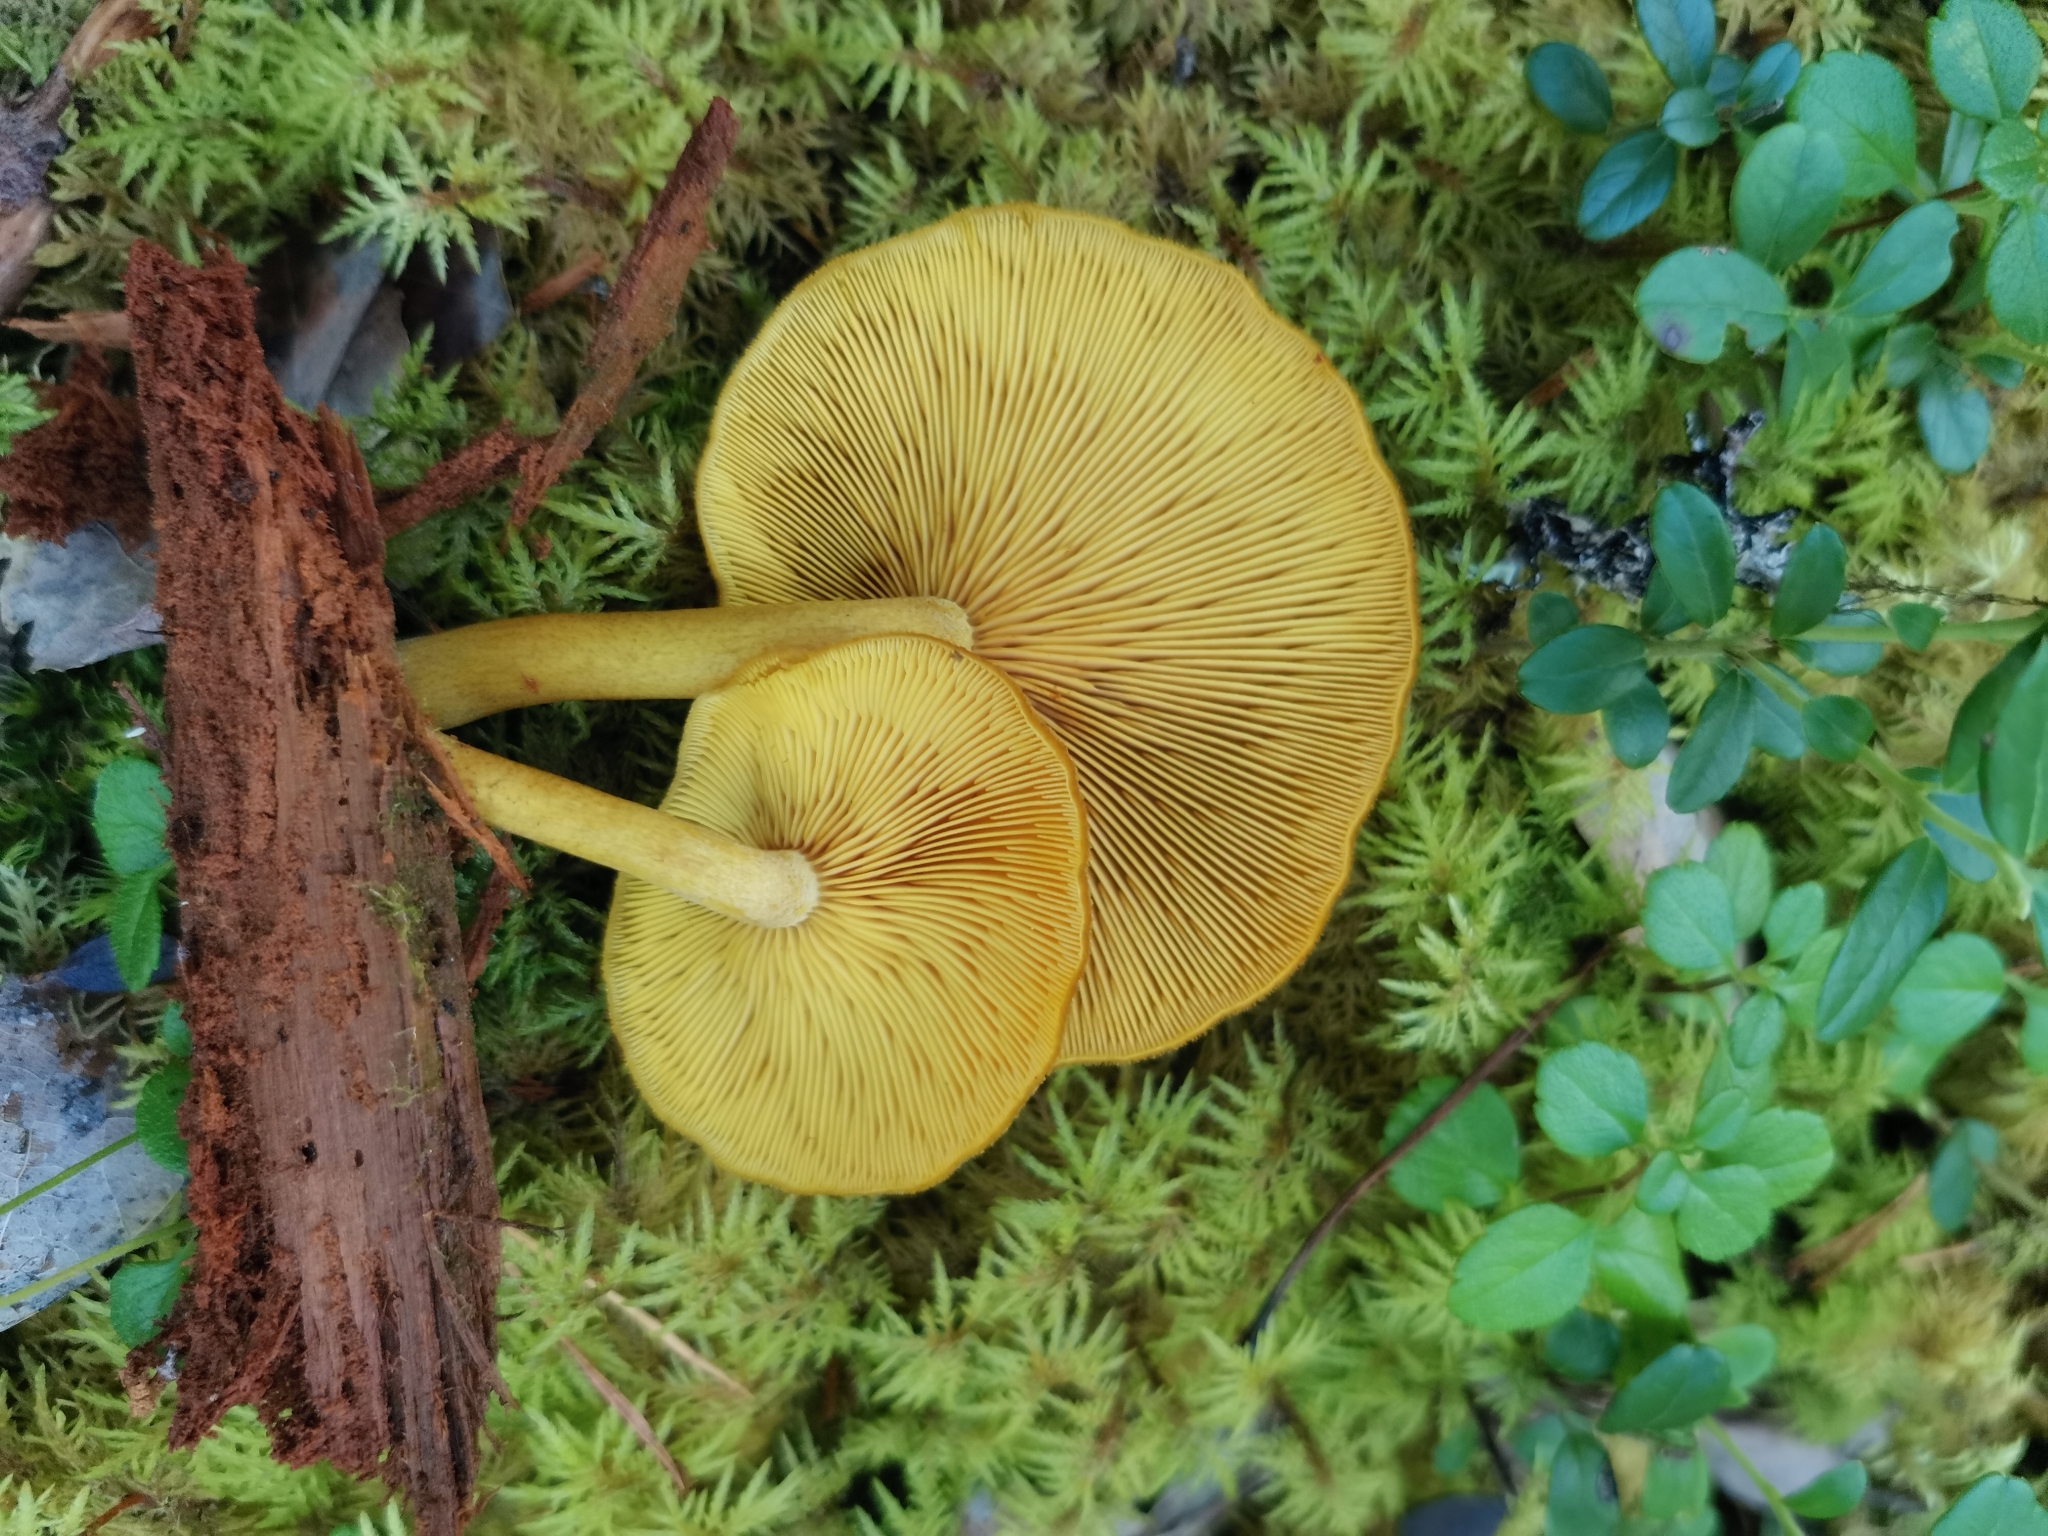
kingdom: Fungi
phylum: Basidiomycota
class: Agaricomycetes
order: Agaricales
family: Tricholomataceae
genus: Tricholomopsis
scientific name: Tricholomopsis decora
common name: Prunes and custard
